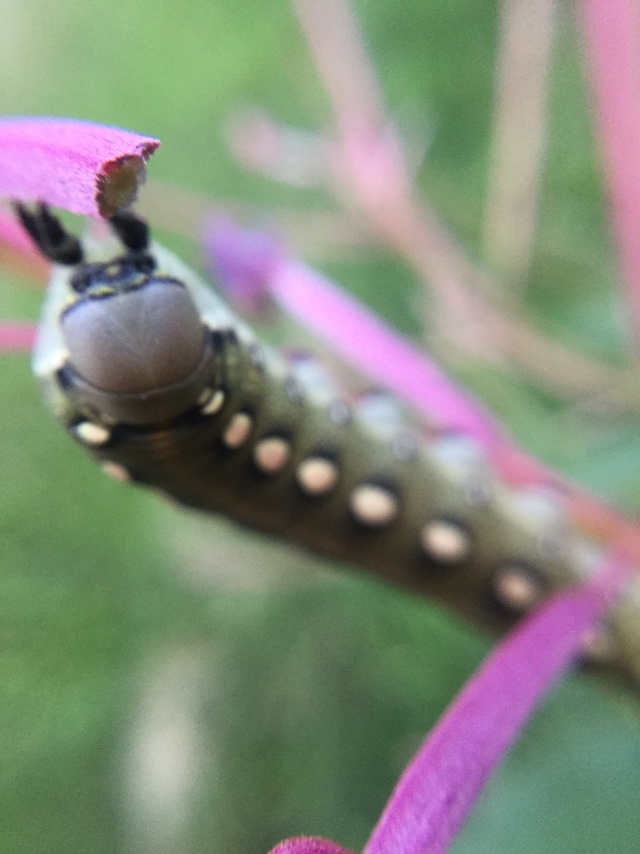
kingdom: Animalia
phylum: Arthropoda
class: Insecta
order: Lepidoptera
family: Sphingidae
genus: Hyles
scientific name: Hyles gallii
